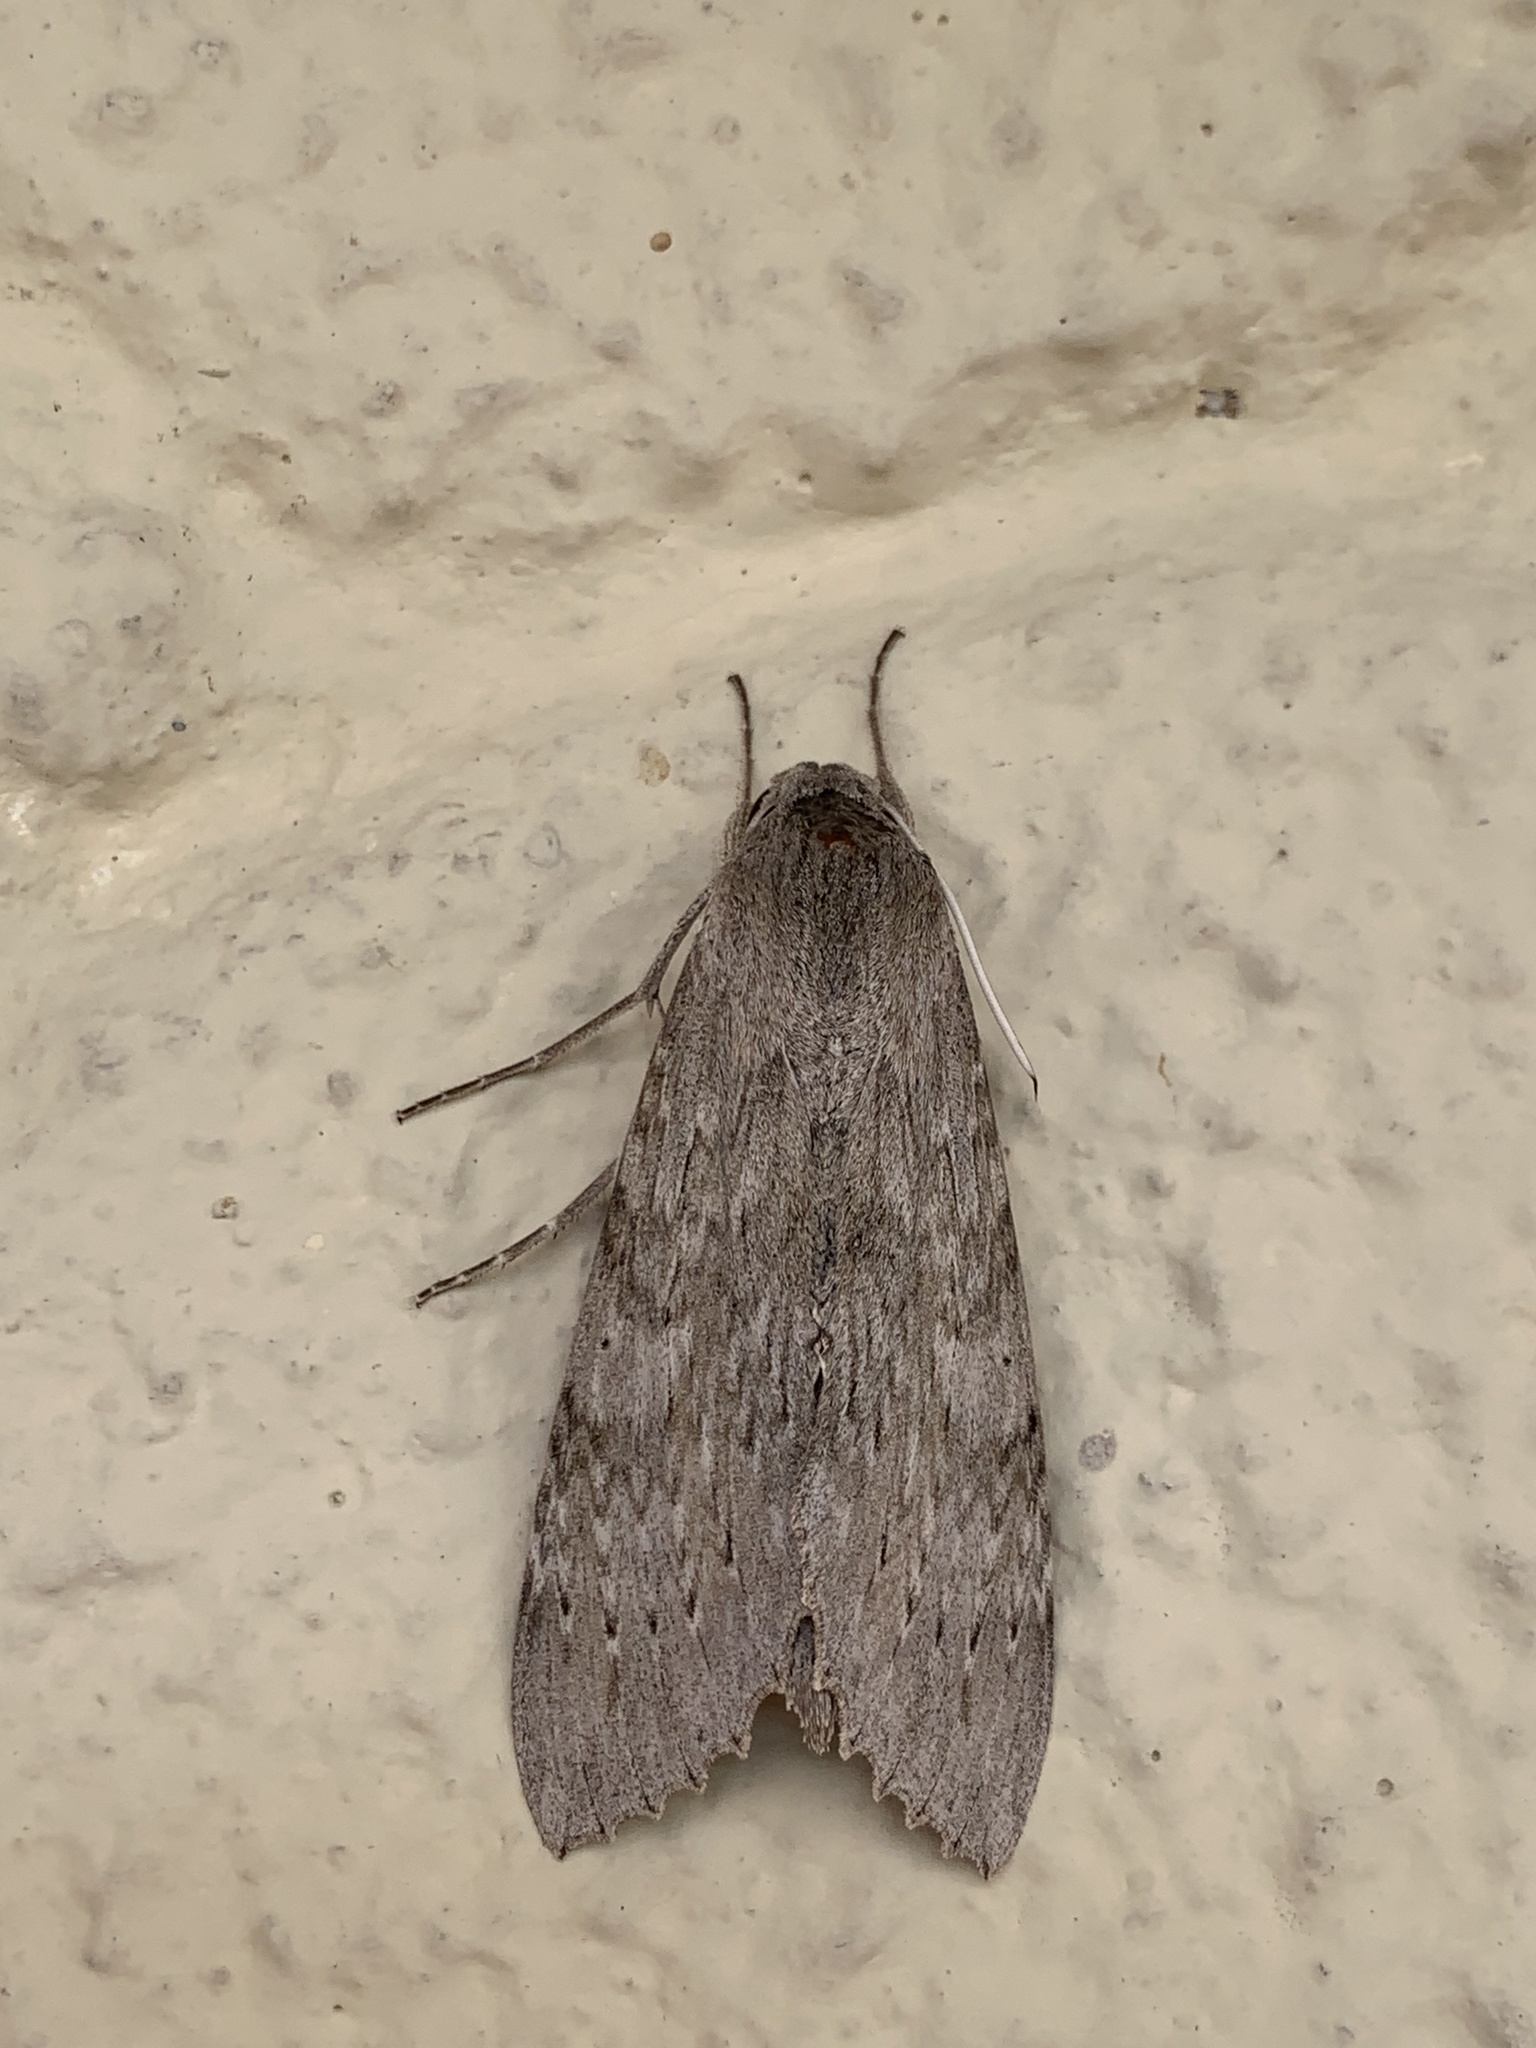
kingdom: Animalia
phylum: Arthropoda
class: Insecta
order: Lepidoptera
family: Sphingidae
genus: Erinnyis
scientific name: Erinnyis ello
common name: Ello sphinx
